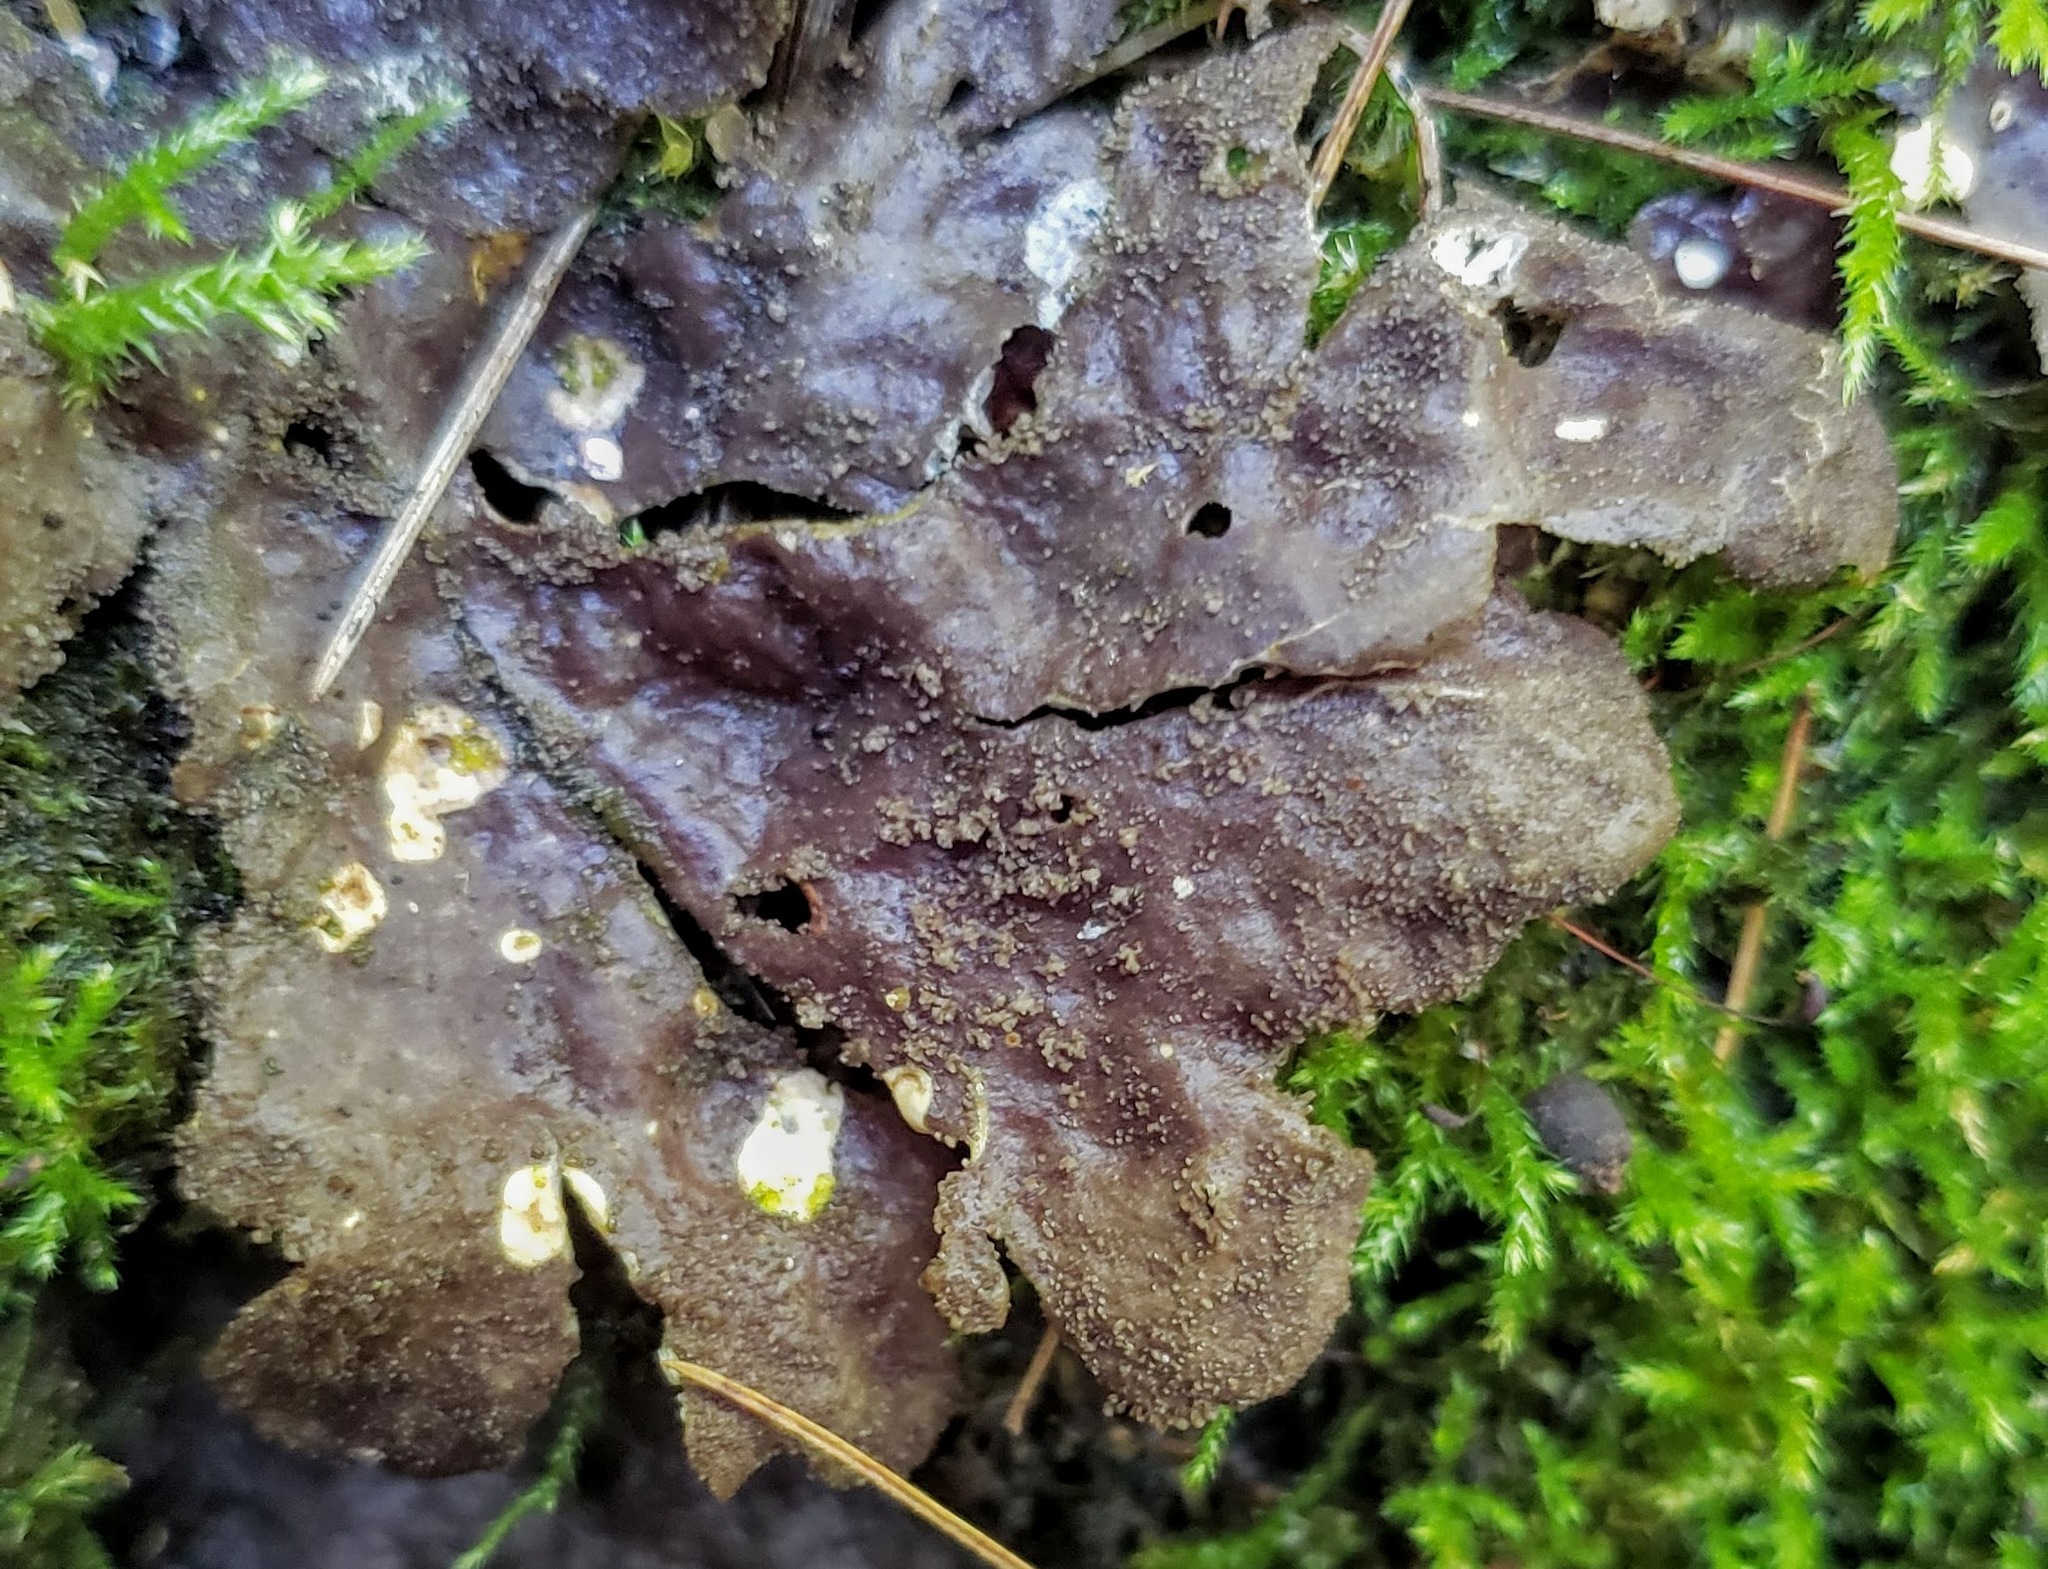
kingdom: Fungi
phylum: Ascomycota
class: Lecanoromycetes
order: Peltigerales
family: Peltigeraceae
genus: Peltigera
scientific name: Peltigera evansiana
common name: Peppered pelt lichen
